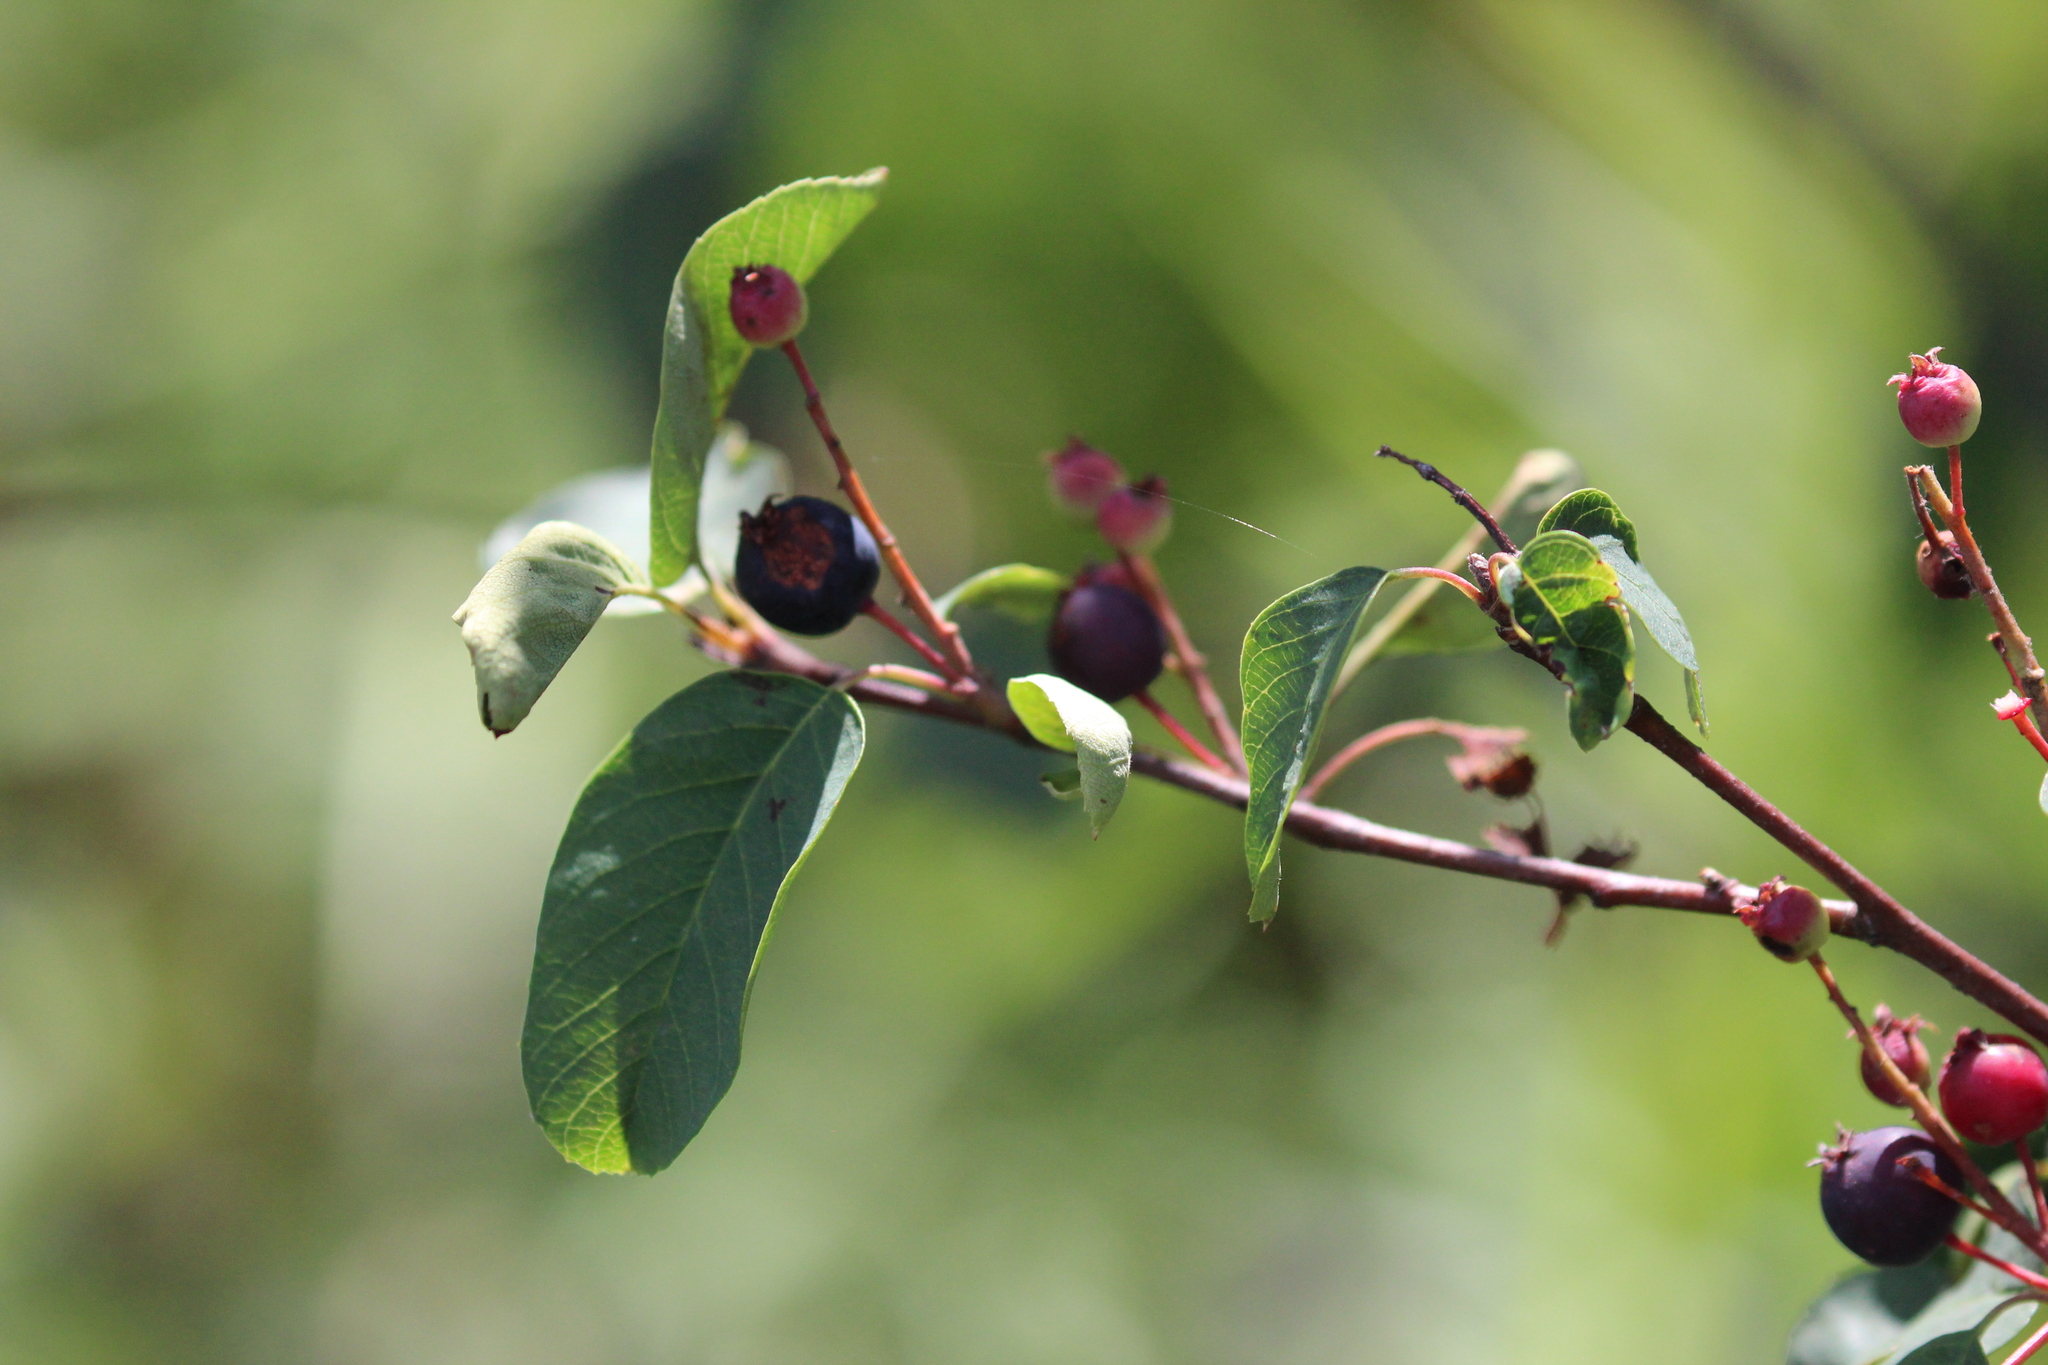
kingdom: Plantae
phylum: Tracheophyta
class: Magnoliopsida
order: Rosales
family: Rosaceae
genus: Amelanchier
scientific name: Amelanchier alnifolia
